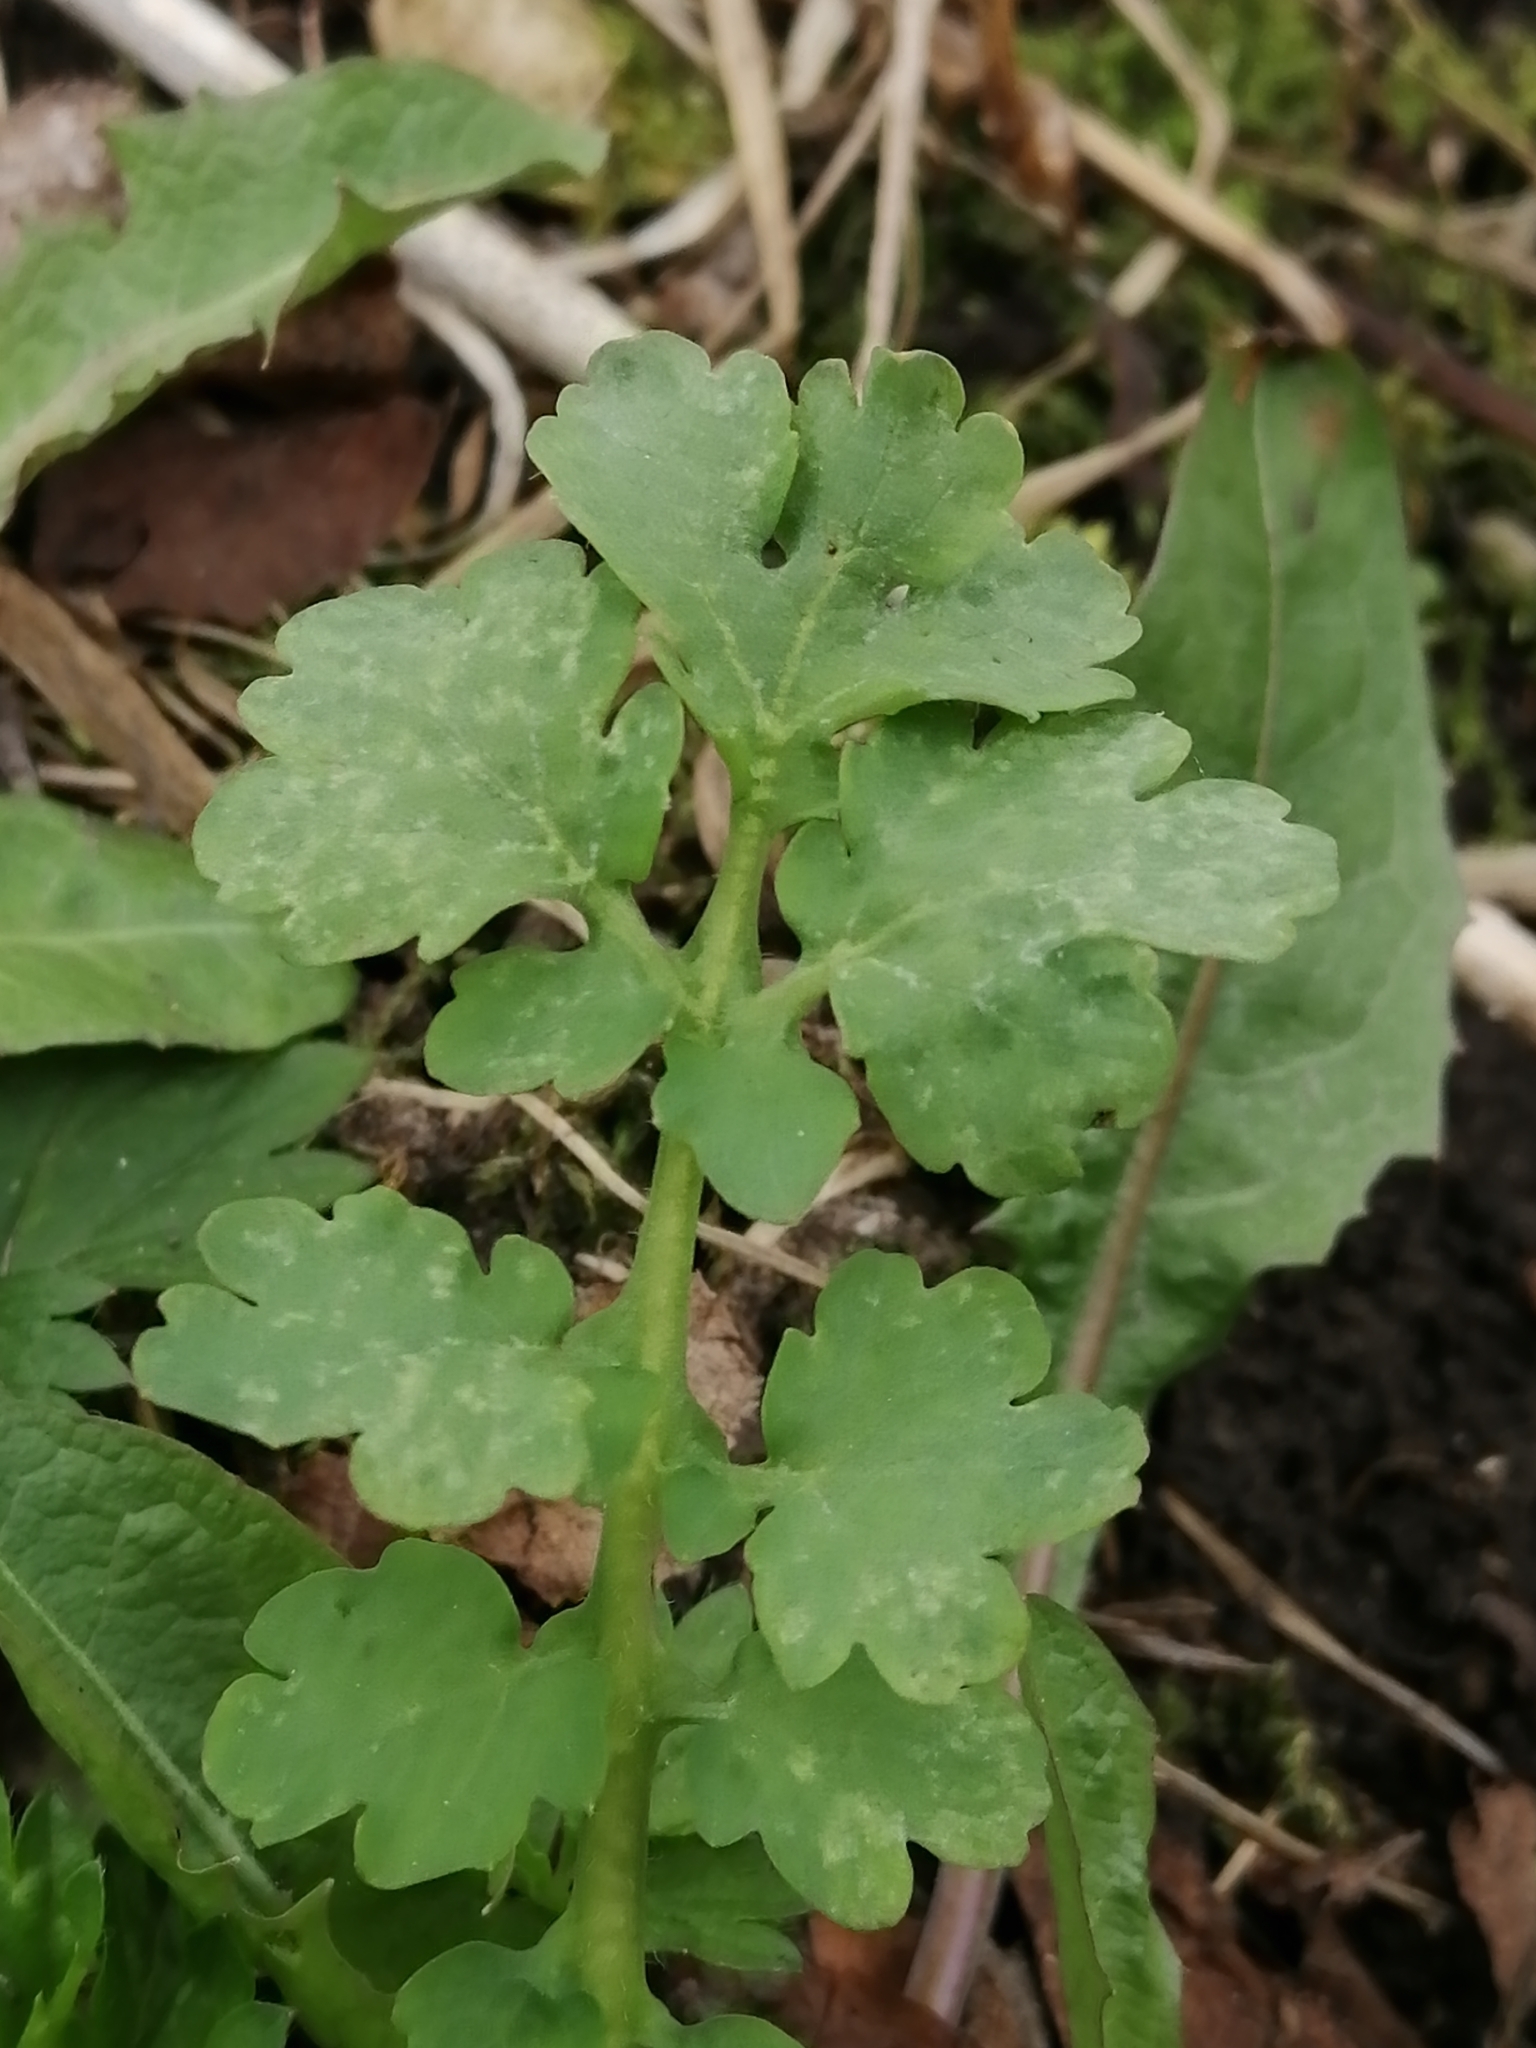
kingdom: Plantae
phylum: Tracheophyta
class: Magnoliopsida
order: Ranunculales
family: Papaveraceae
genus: Chelidonium
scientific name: Chelidonium majus
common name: Greater celandine
